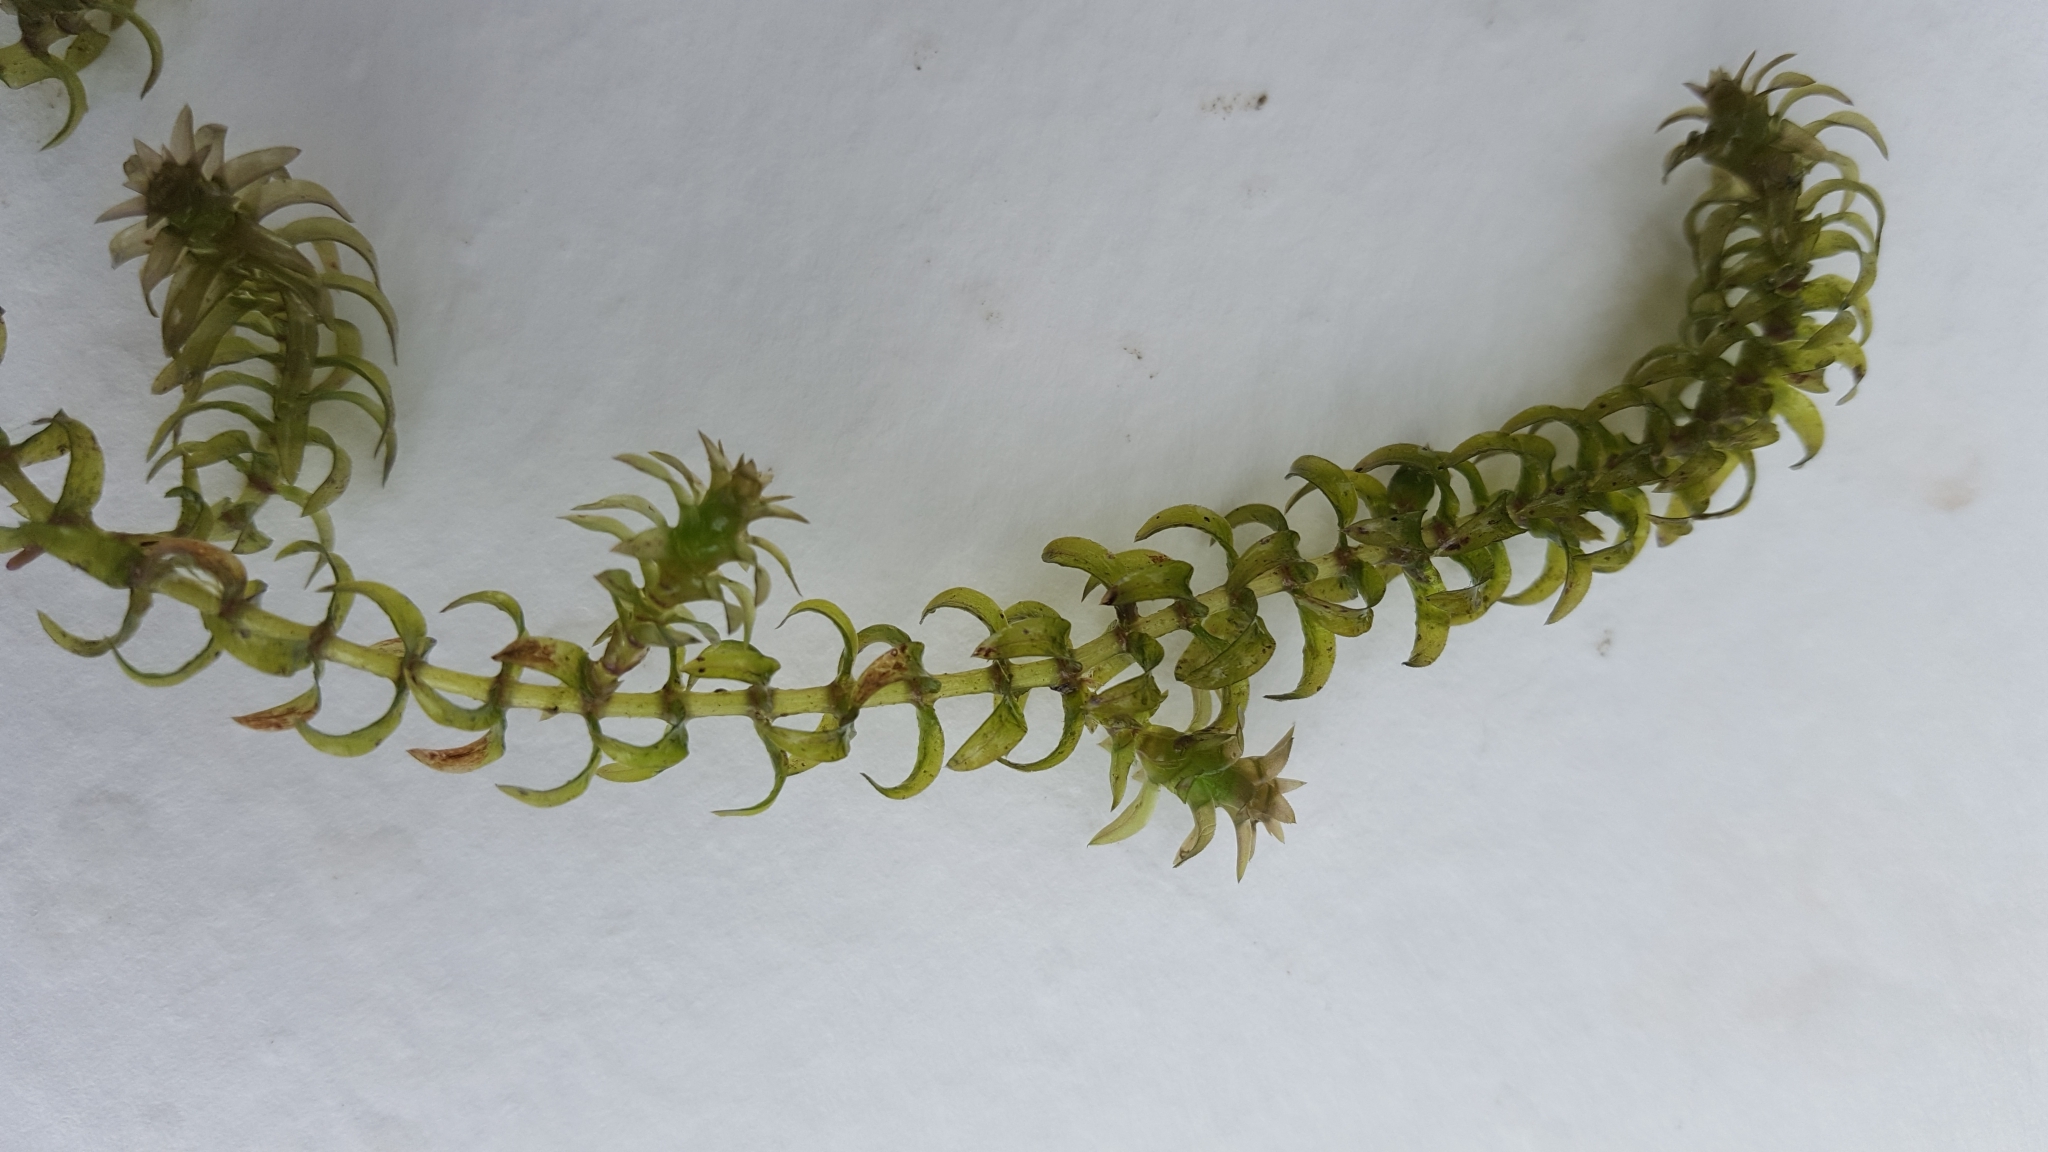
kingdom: Plantae
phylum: Tracheophyta
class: Liliopsida
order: Alismatales
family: Hydrocharitaceae
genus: Elodea
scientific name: Elodea canadensis
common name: Canadian waterweed
